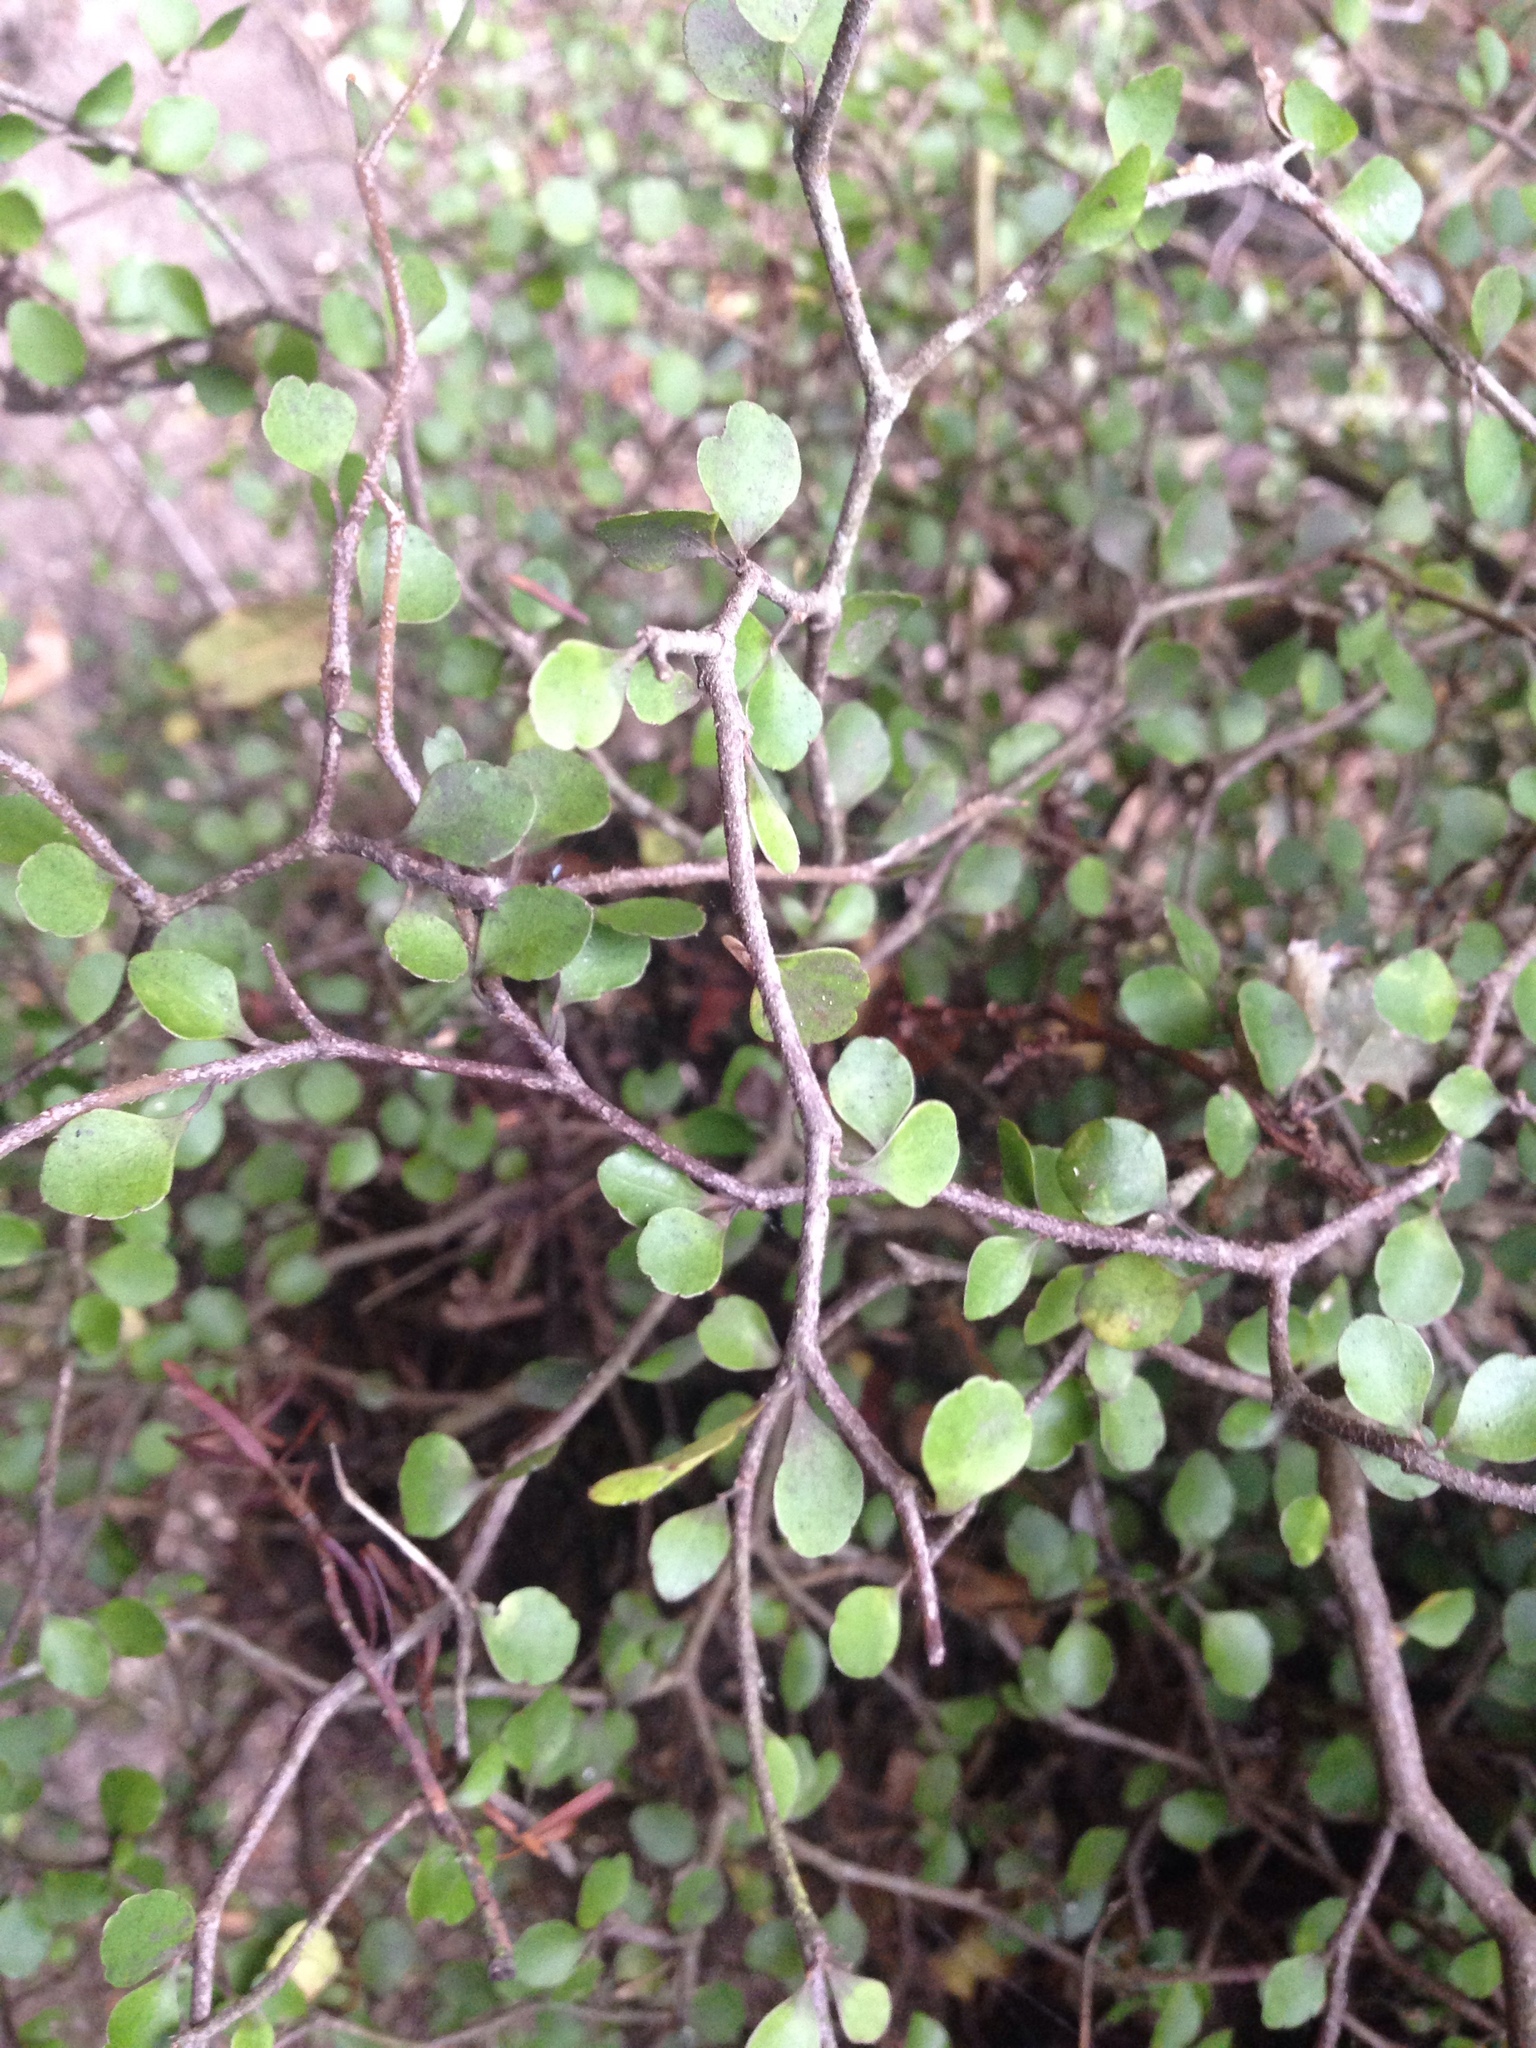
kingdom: Plantae
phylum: Tracheophyta
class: Magnoliopsida
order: Apiales
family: Araliaceae
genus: Raukaua
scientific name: Raukaua anomalus
